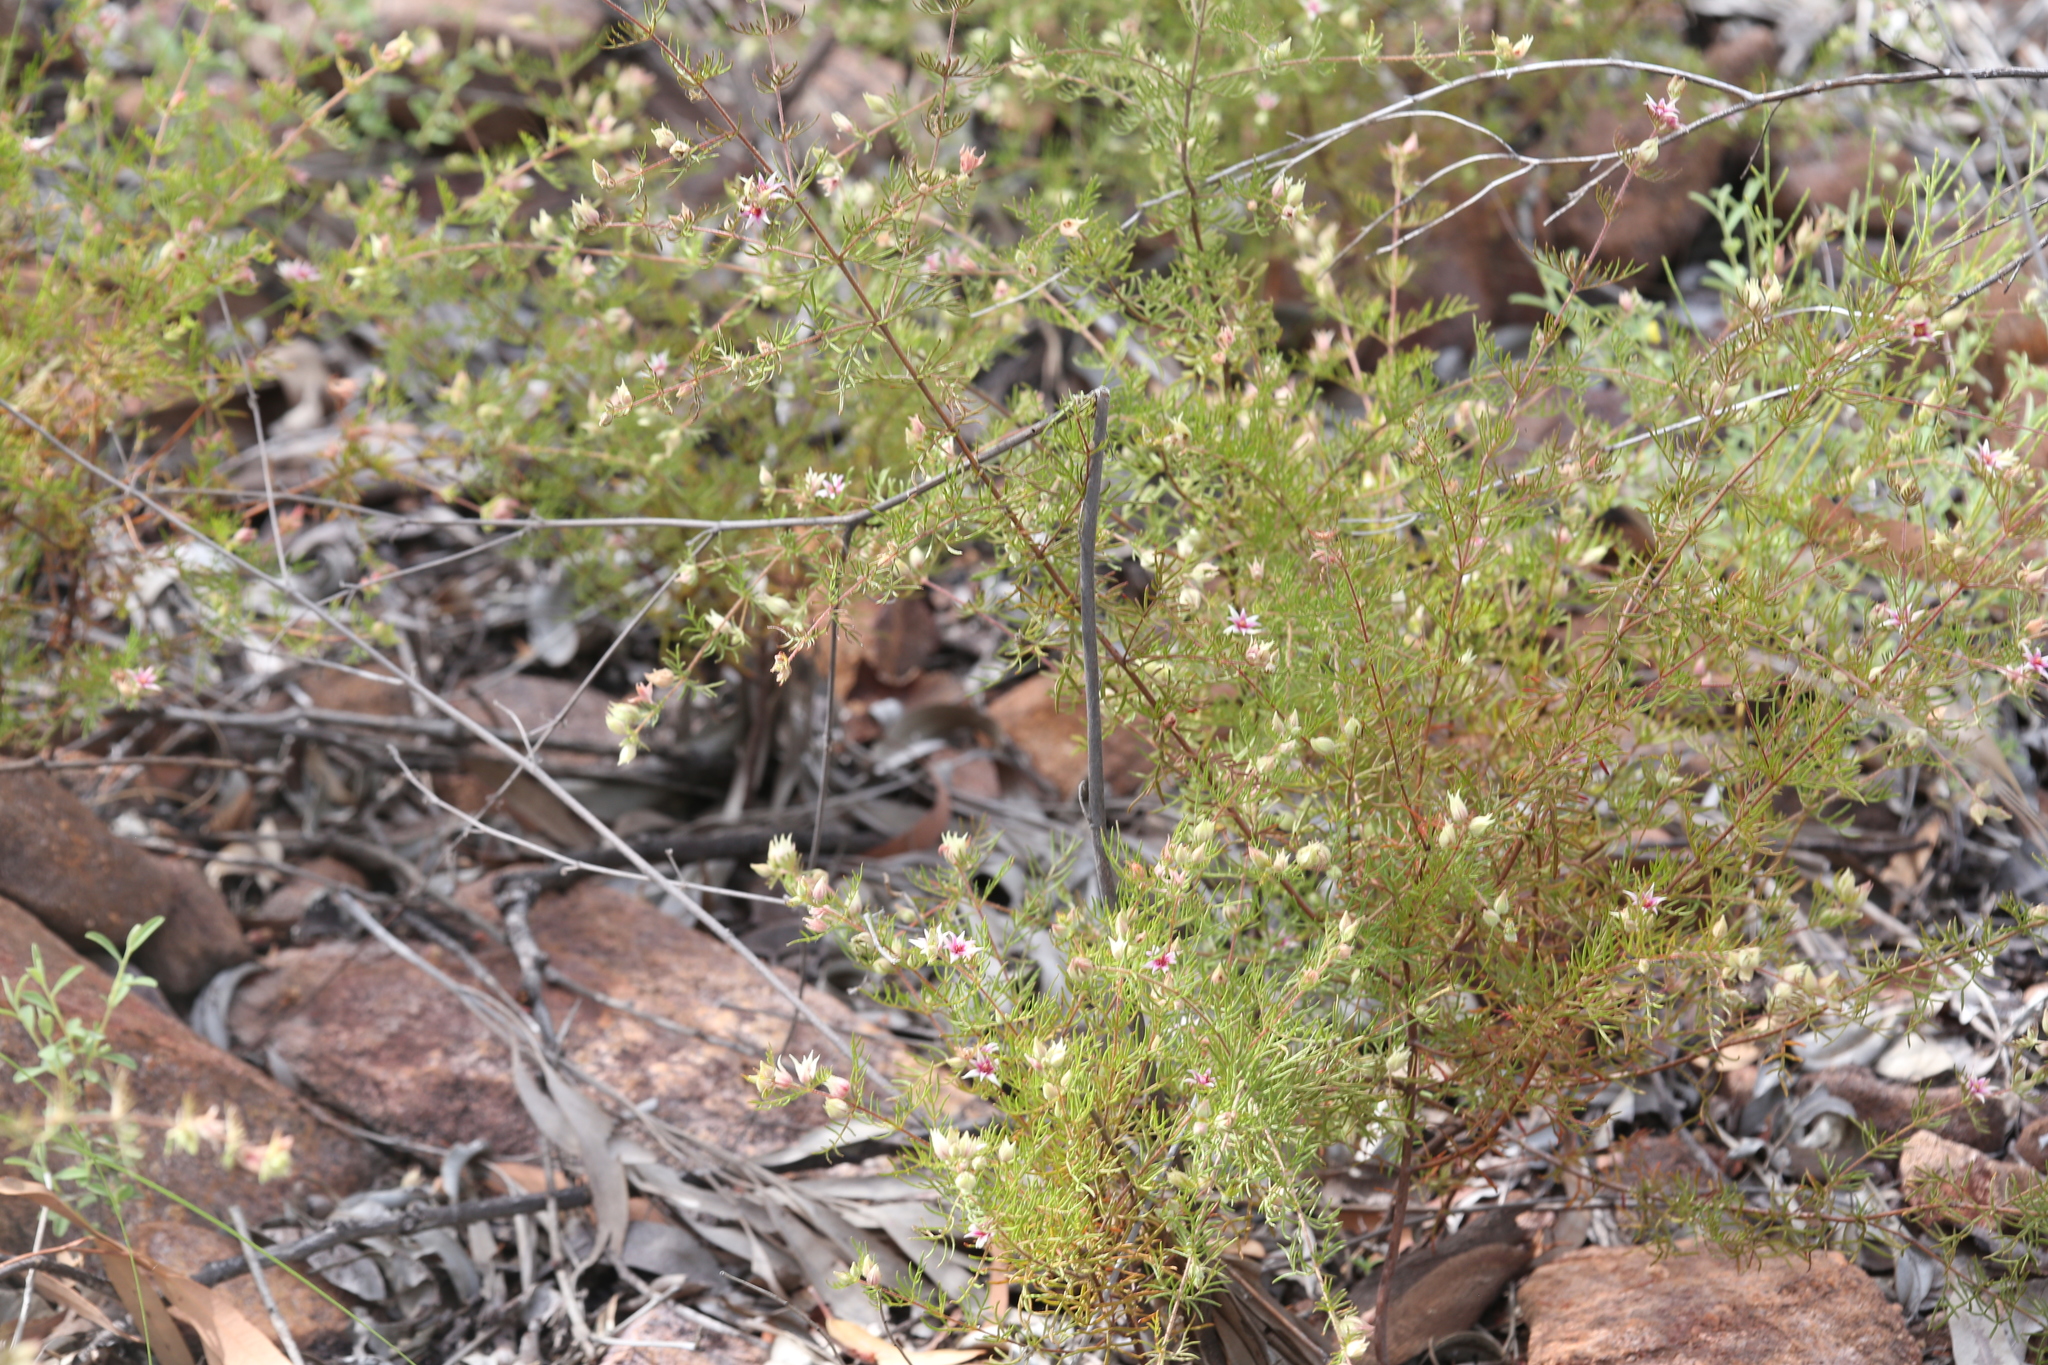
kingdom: Plantae
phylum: Tracheophyta
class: Magnoliopsida
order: Sapindales
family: Rutaceae
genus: Boronia
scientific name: Boronia lanuginosa
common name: Red boronia
